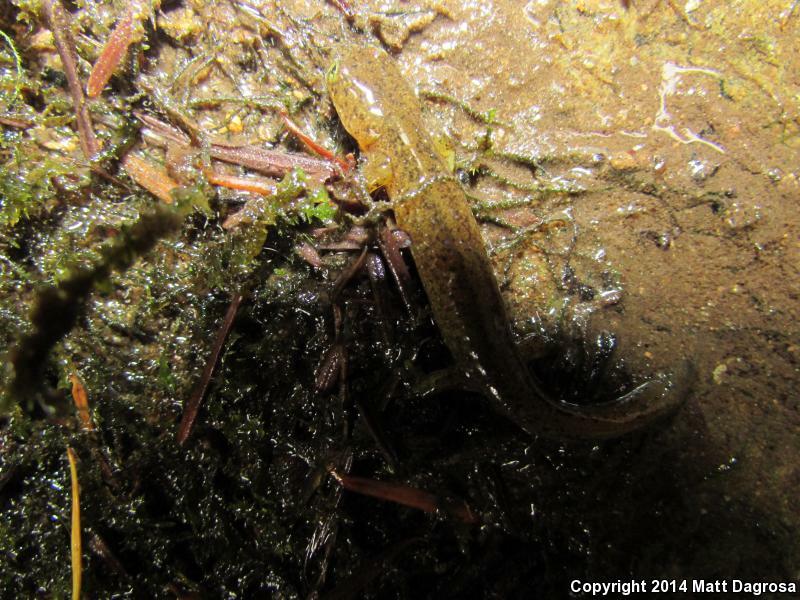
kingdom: Animalia
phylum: Chordata
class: Amphibia
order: Caudata
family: Rhyacotritonidae
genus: Rhyacotriton
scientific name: Rhyacotriton variegatus
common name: Southern torrent salamander
